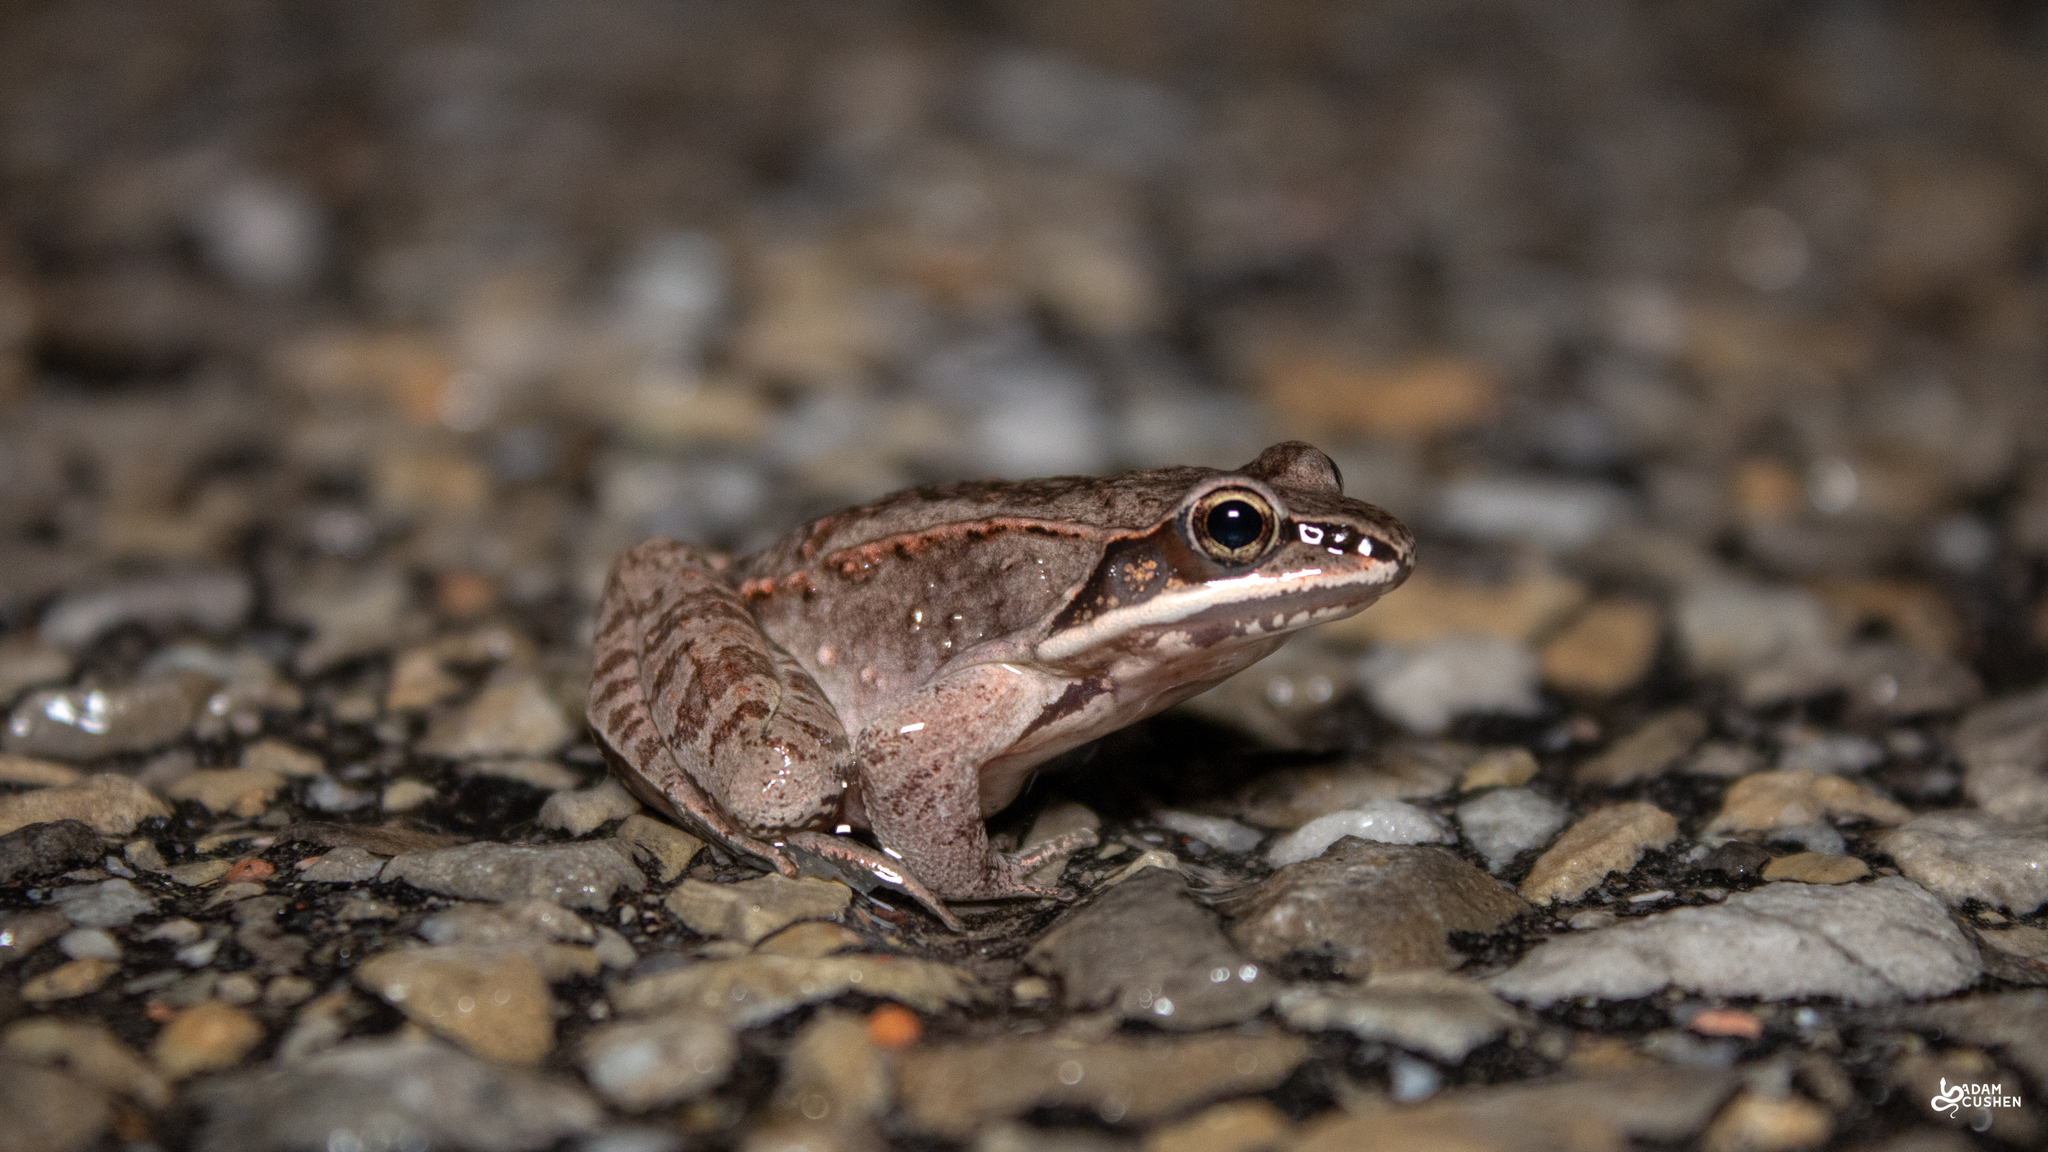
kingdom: Animalia
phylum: Chordata
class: Amphibia
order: Anura
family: Ranidae
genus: Lithobates
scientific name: Lithobates sylvaticus
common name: Wood frog
